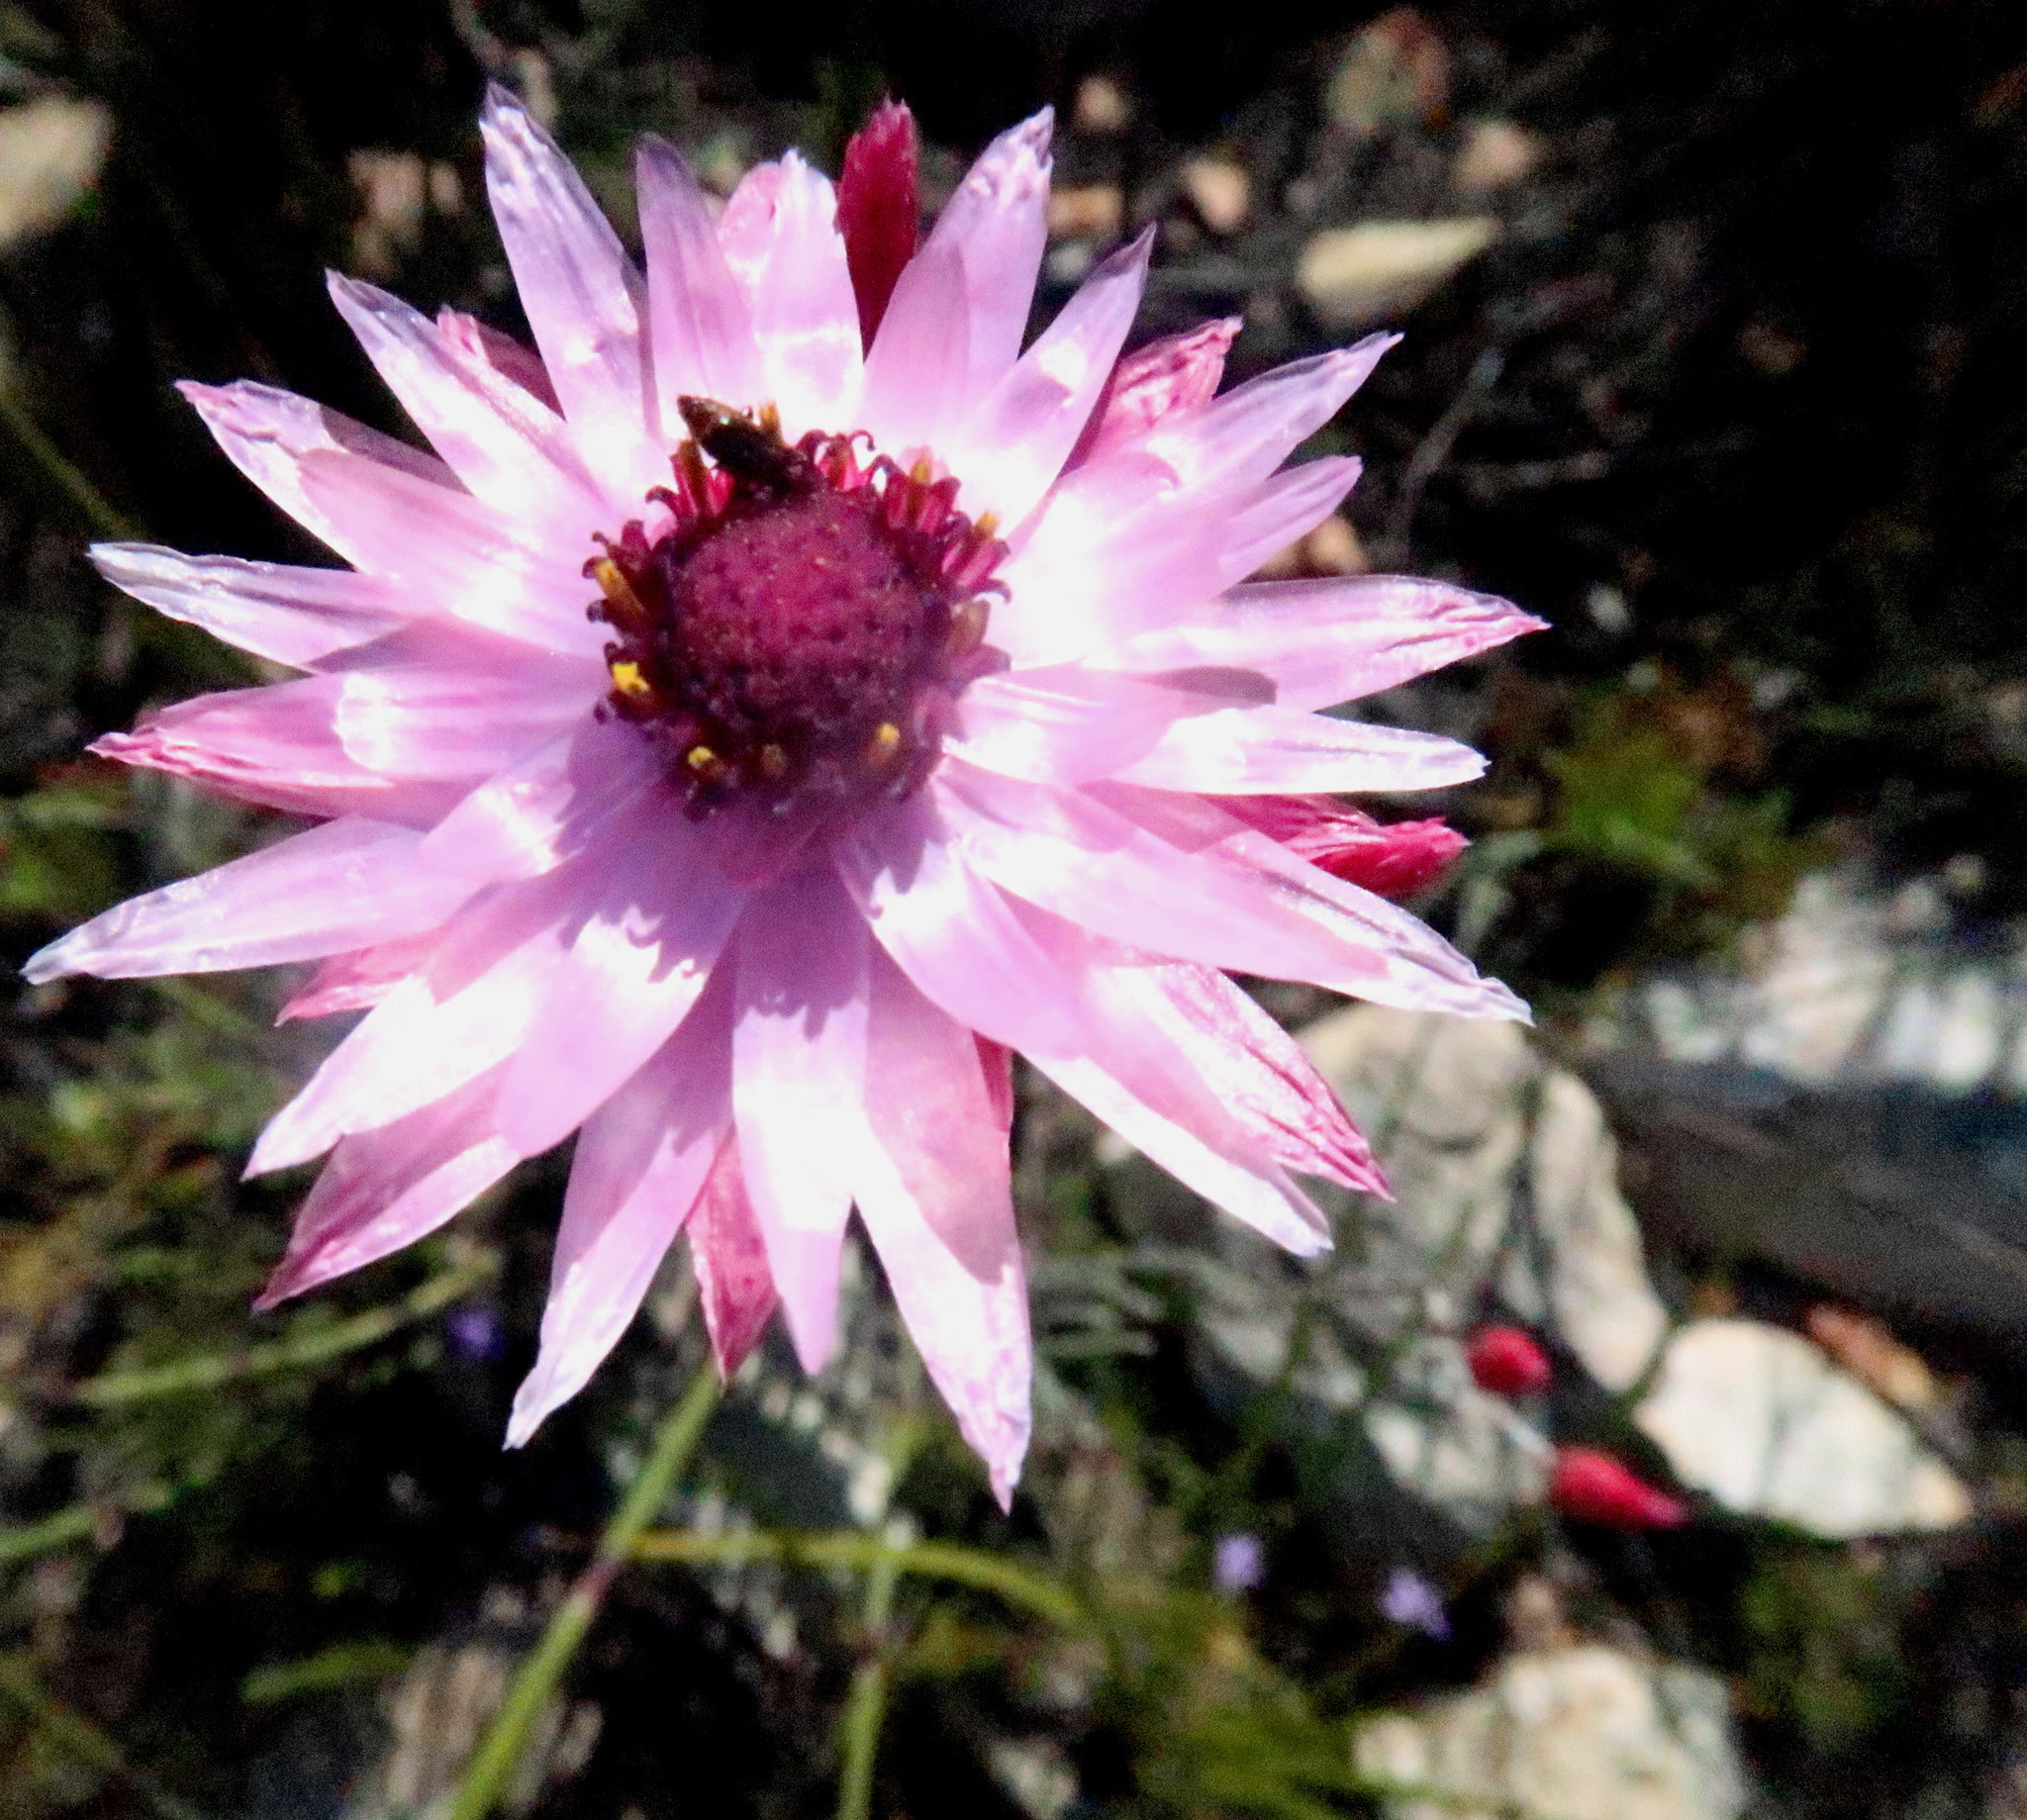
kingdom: Plantae
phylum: Tracheophyta
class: Magnoliopsida
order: Asterales
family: Asteraceae
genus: Syncarpha
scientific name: Syncarpha canescens
